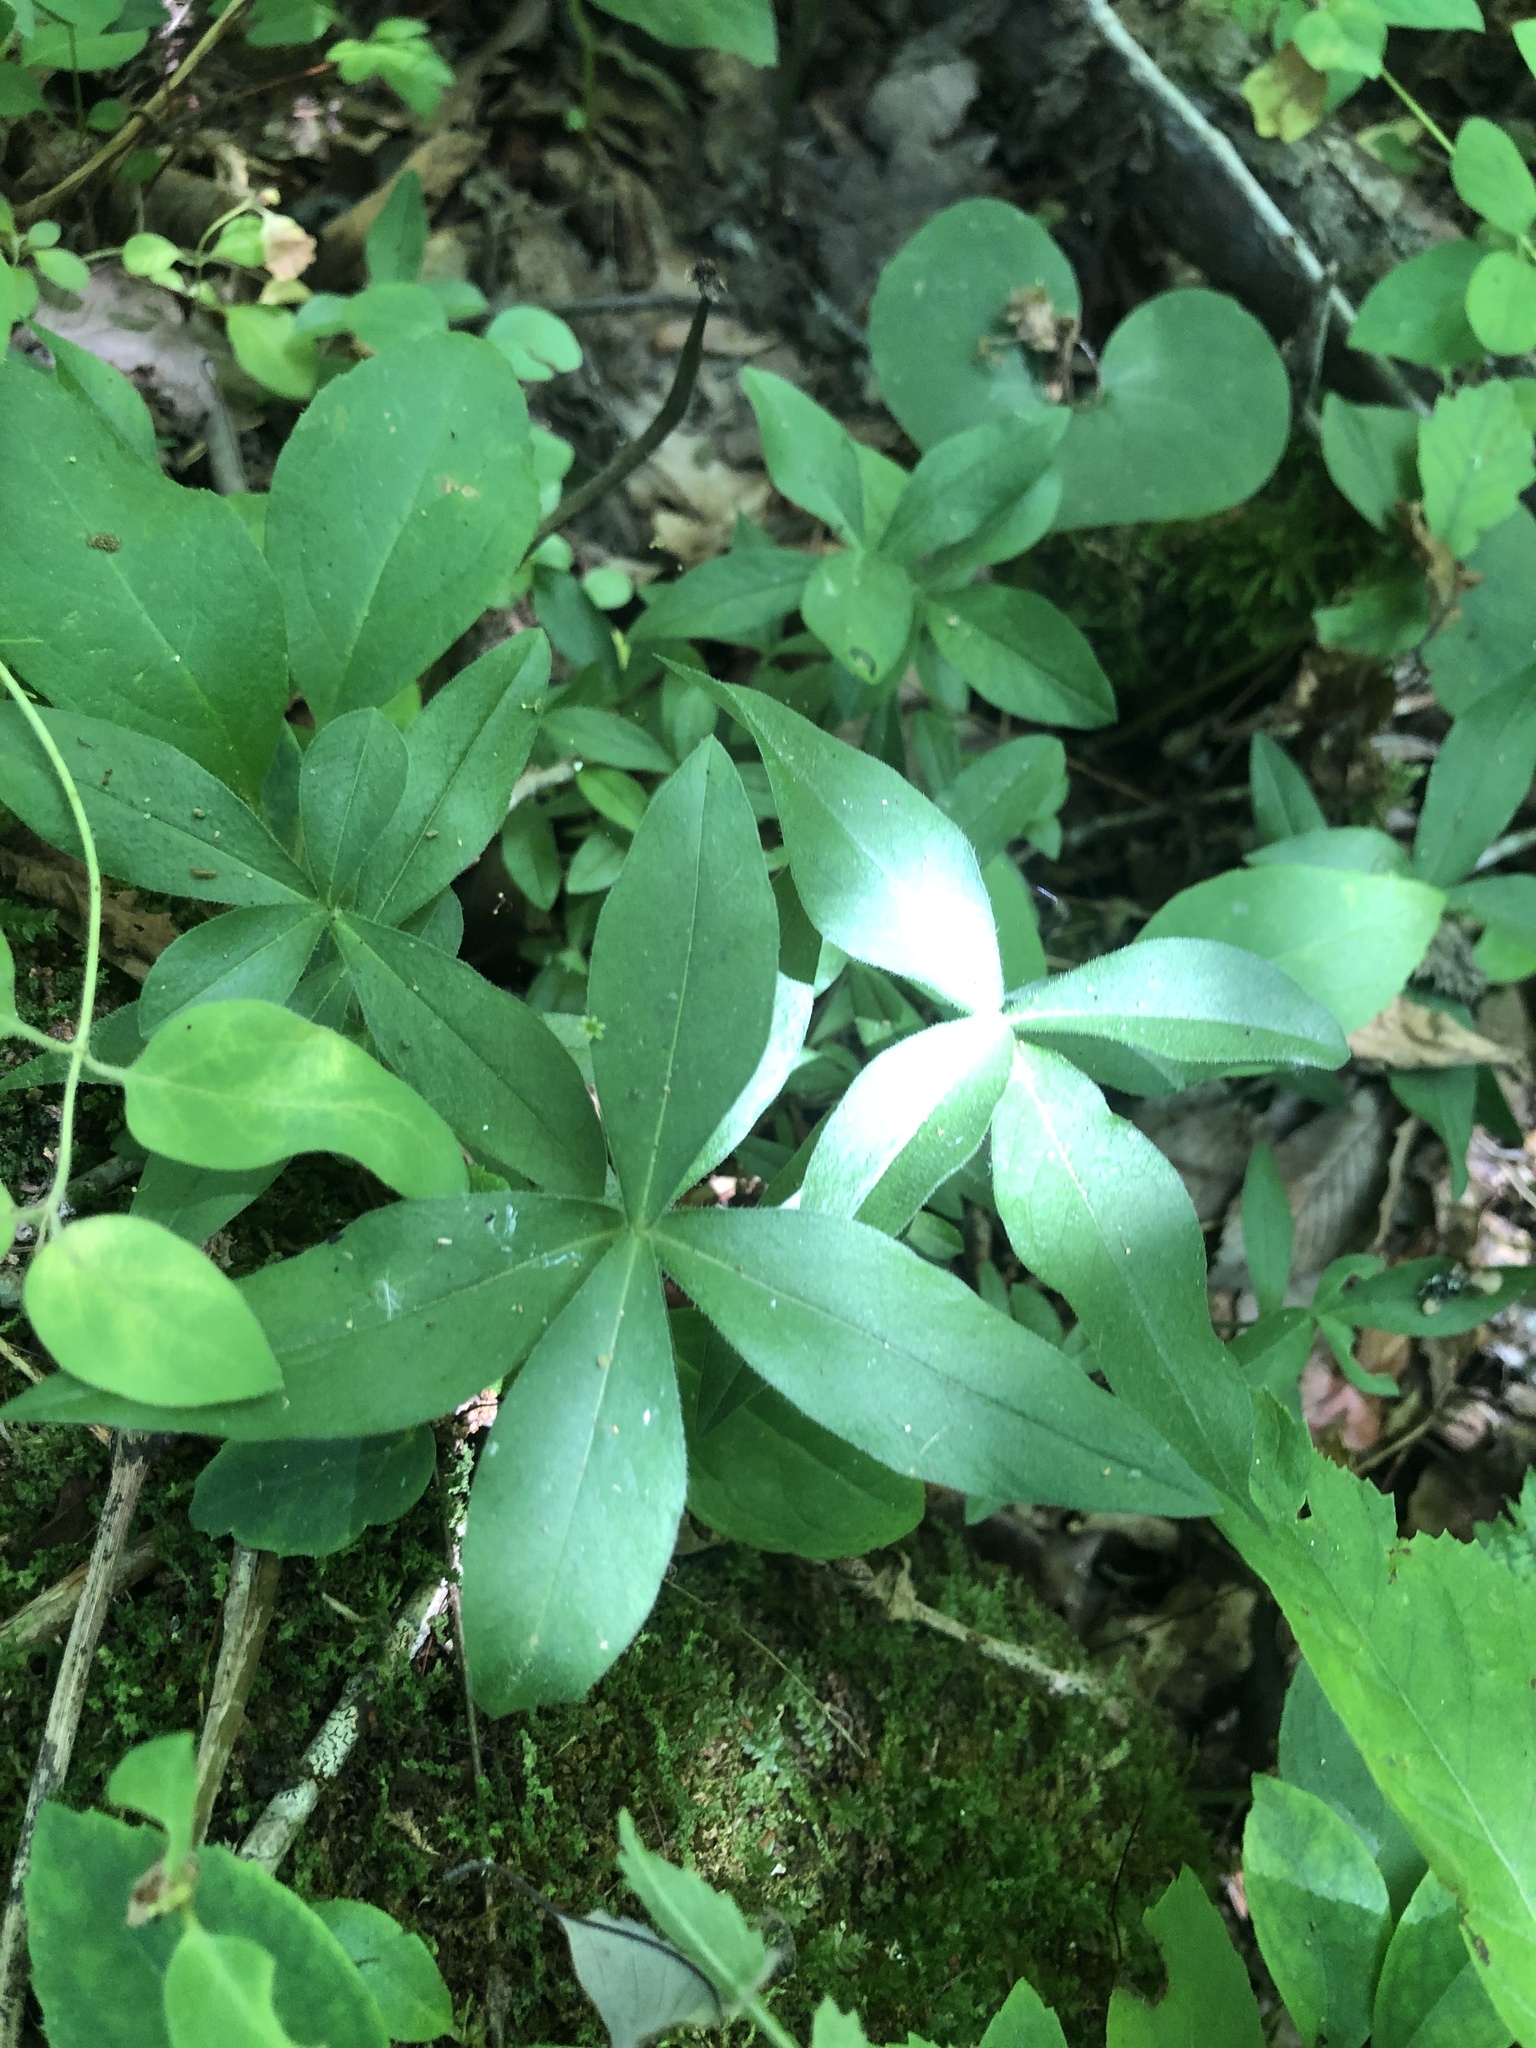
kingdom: Plantae
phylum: Tracheophyta
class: Magnoliopsida
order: Ericales
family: Polemoniaceae
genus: Phlox
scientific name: Phlox divaricata
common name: Blue phlox
